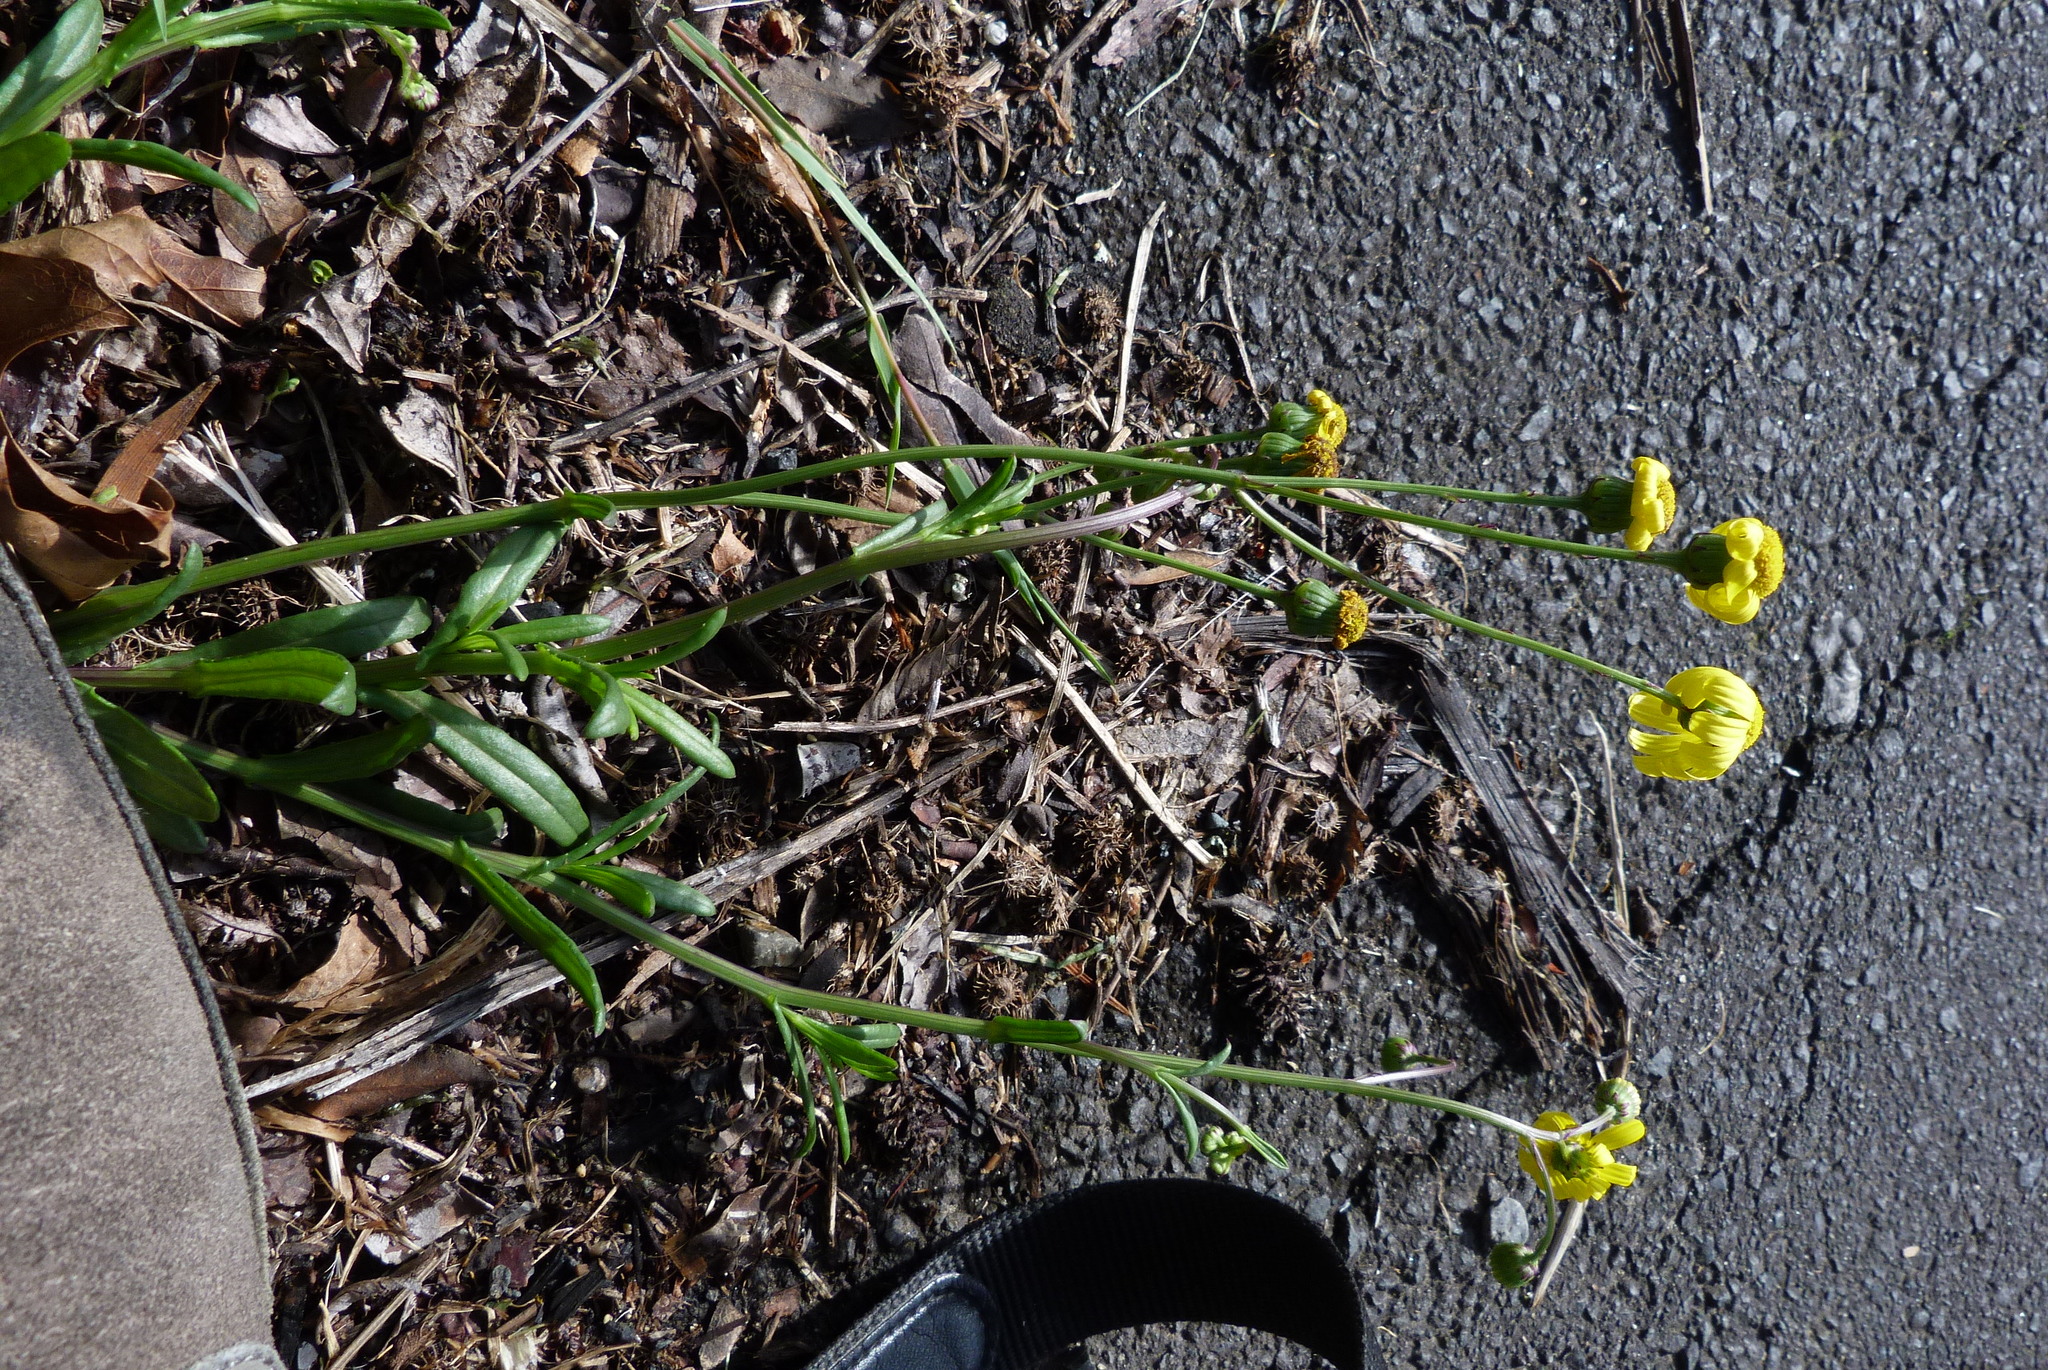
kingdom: Plantae
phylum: Tracheophyta
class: Magnoliopsida
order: Asterales
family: Asteraceae
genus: Senecio
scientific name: Senecio skirrhodon
